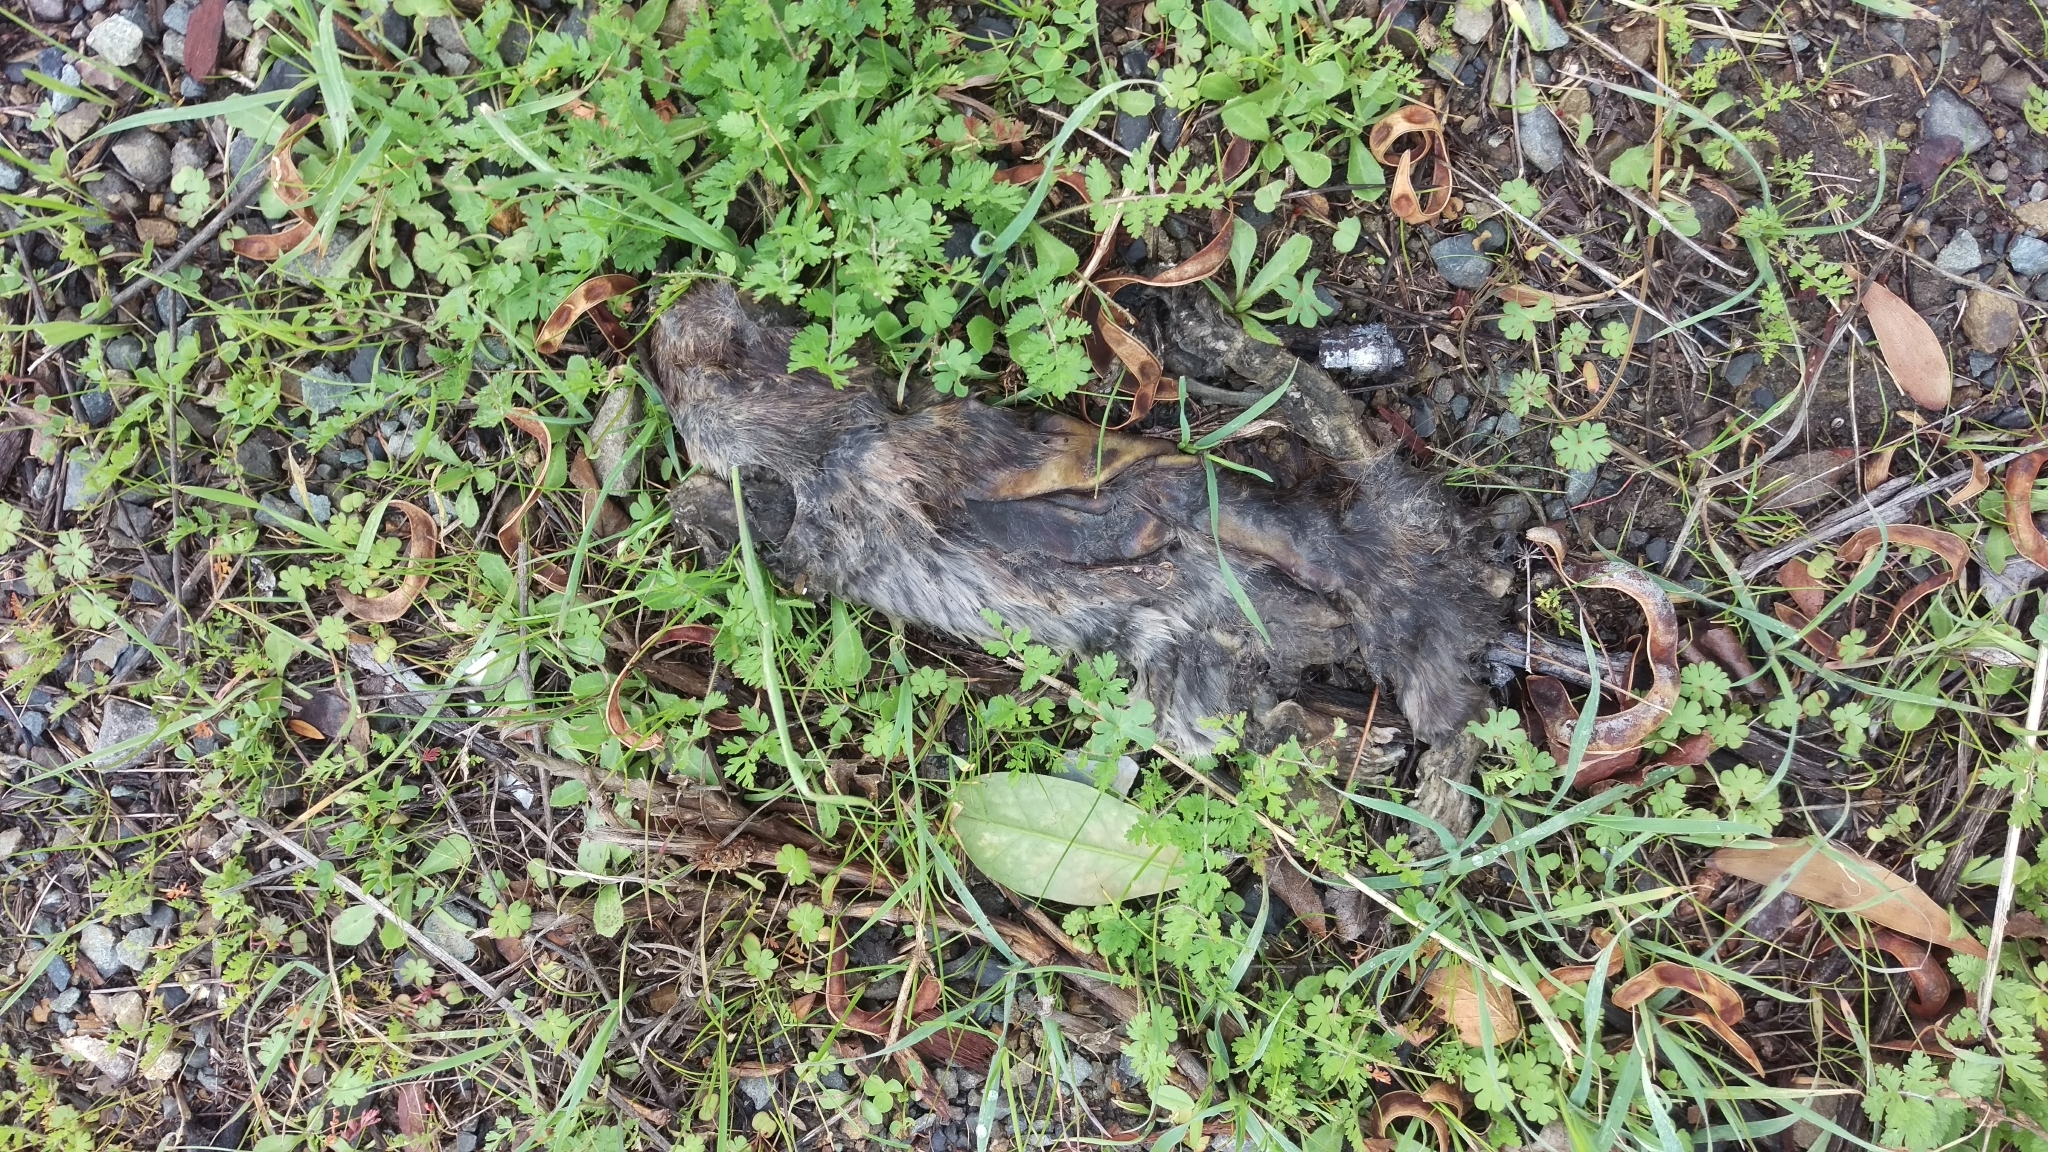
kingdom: Animalia
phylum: Chordata
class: Mammalia
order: Rodentia
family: Muridae
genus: Rattus
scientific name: Rattus norvegicus
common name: Brown rat
